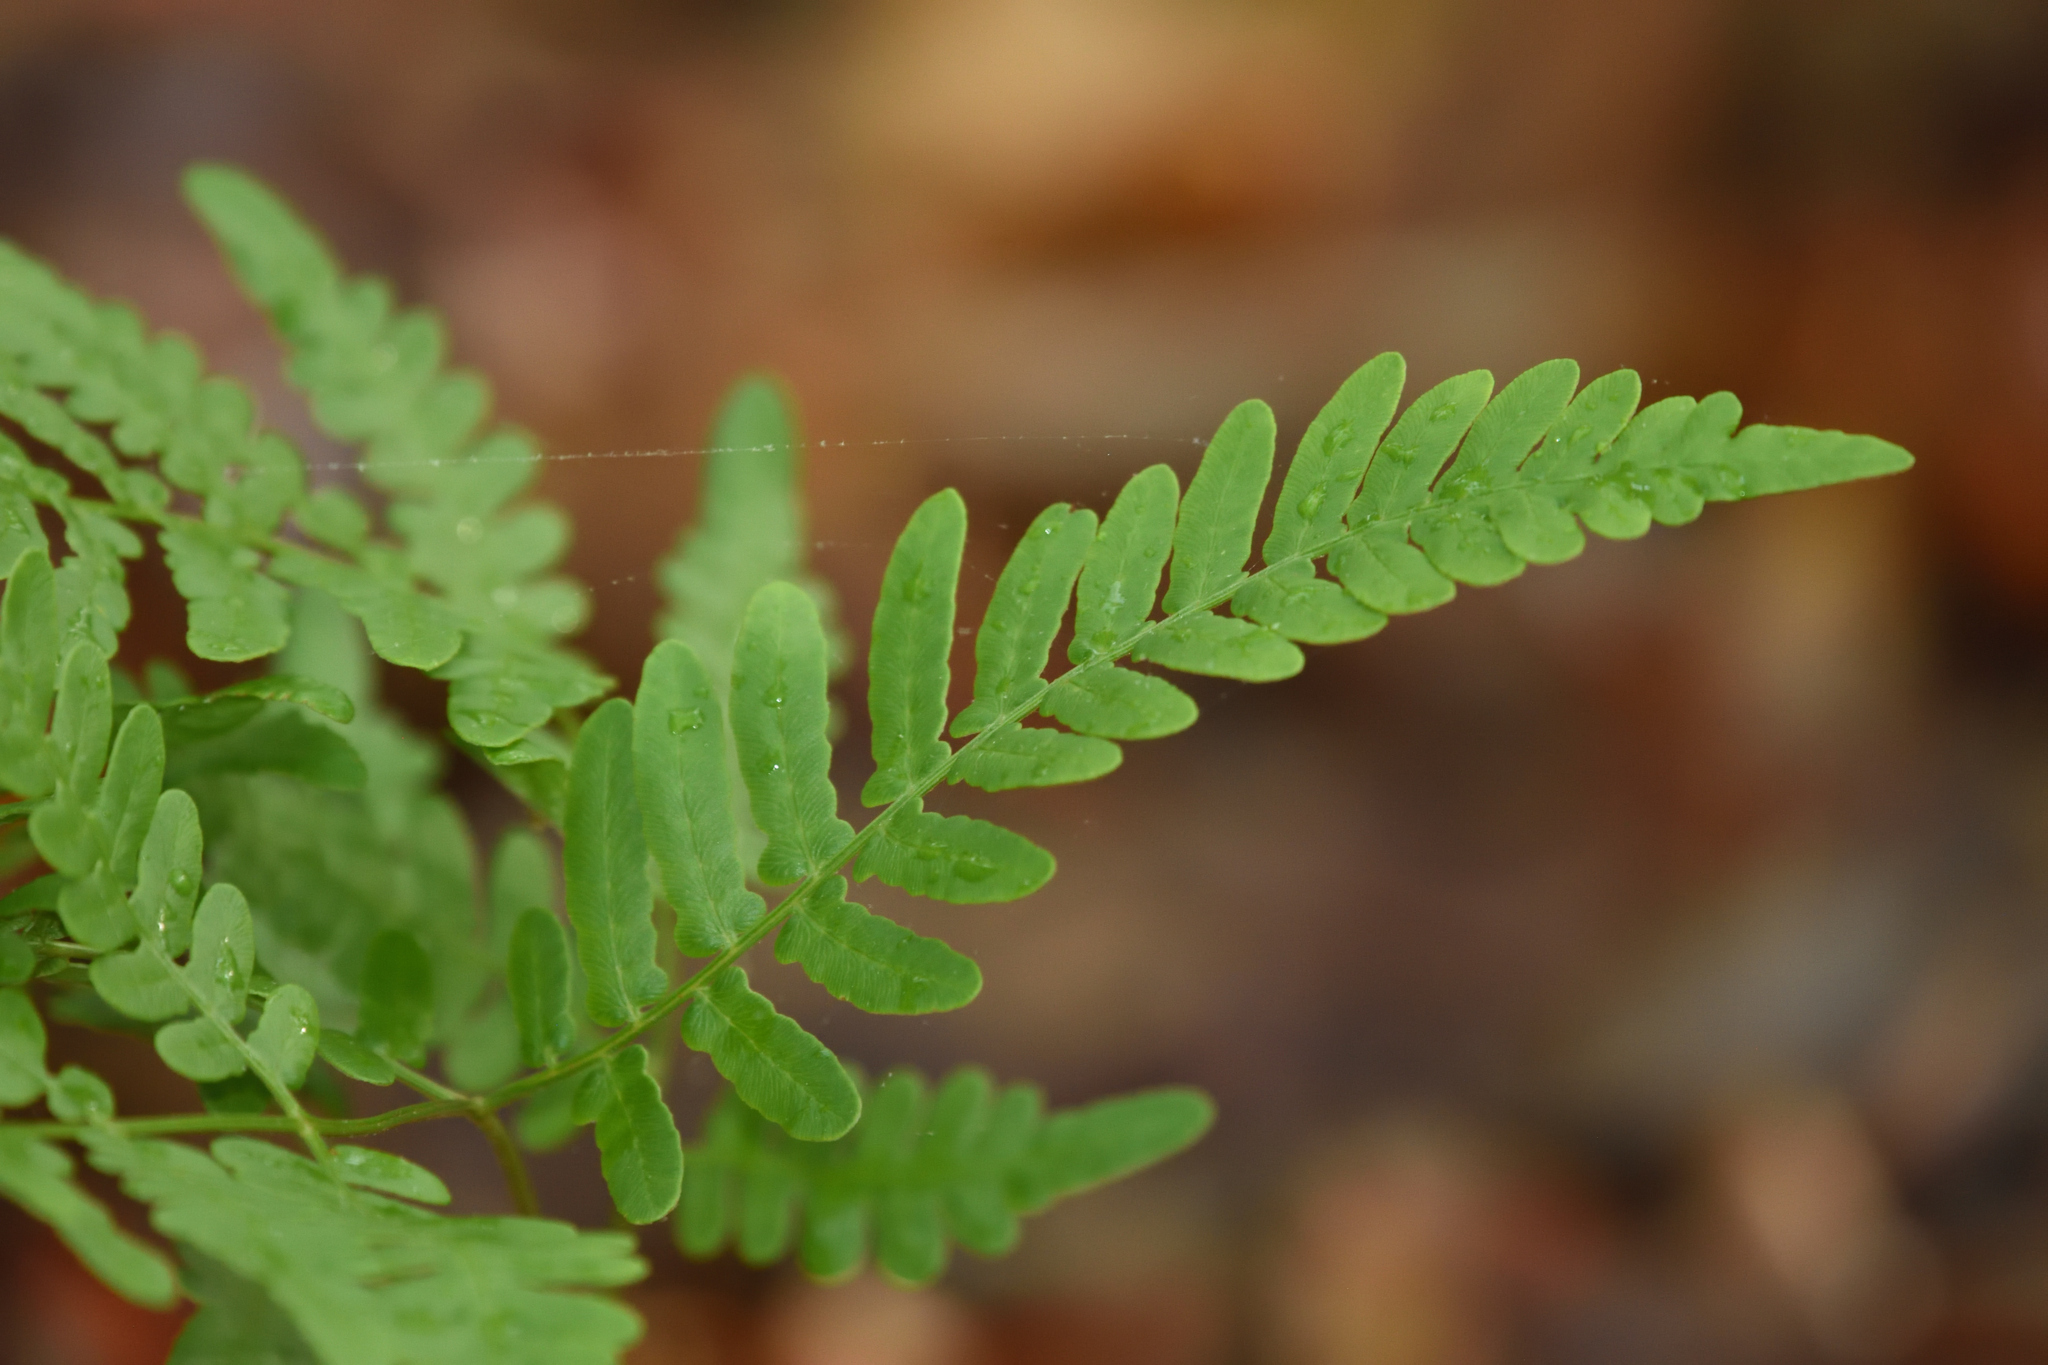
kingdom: Plantae
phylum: Tracheophyta
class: Polypodiopsida
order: Polypodiales
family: Dennstaedtiaceae
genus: Pteridium
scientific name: Pteridium aquilinum
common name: Bracken
